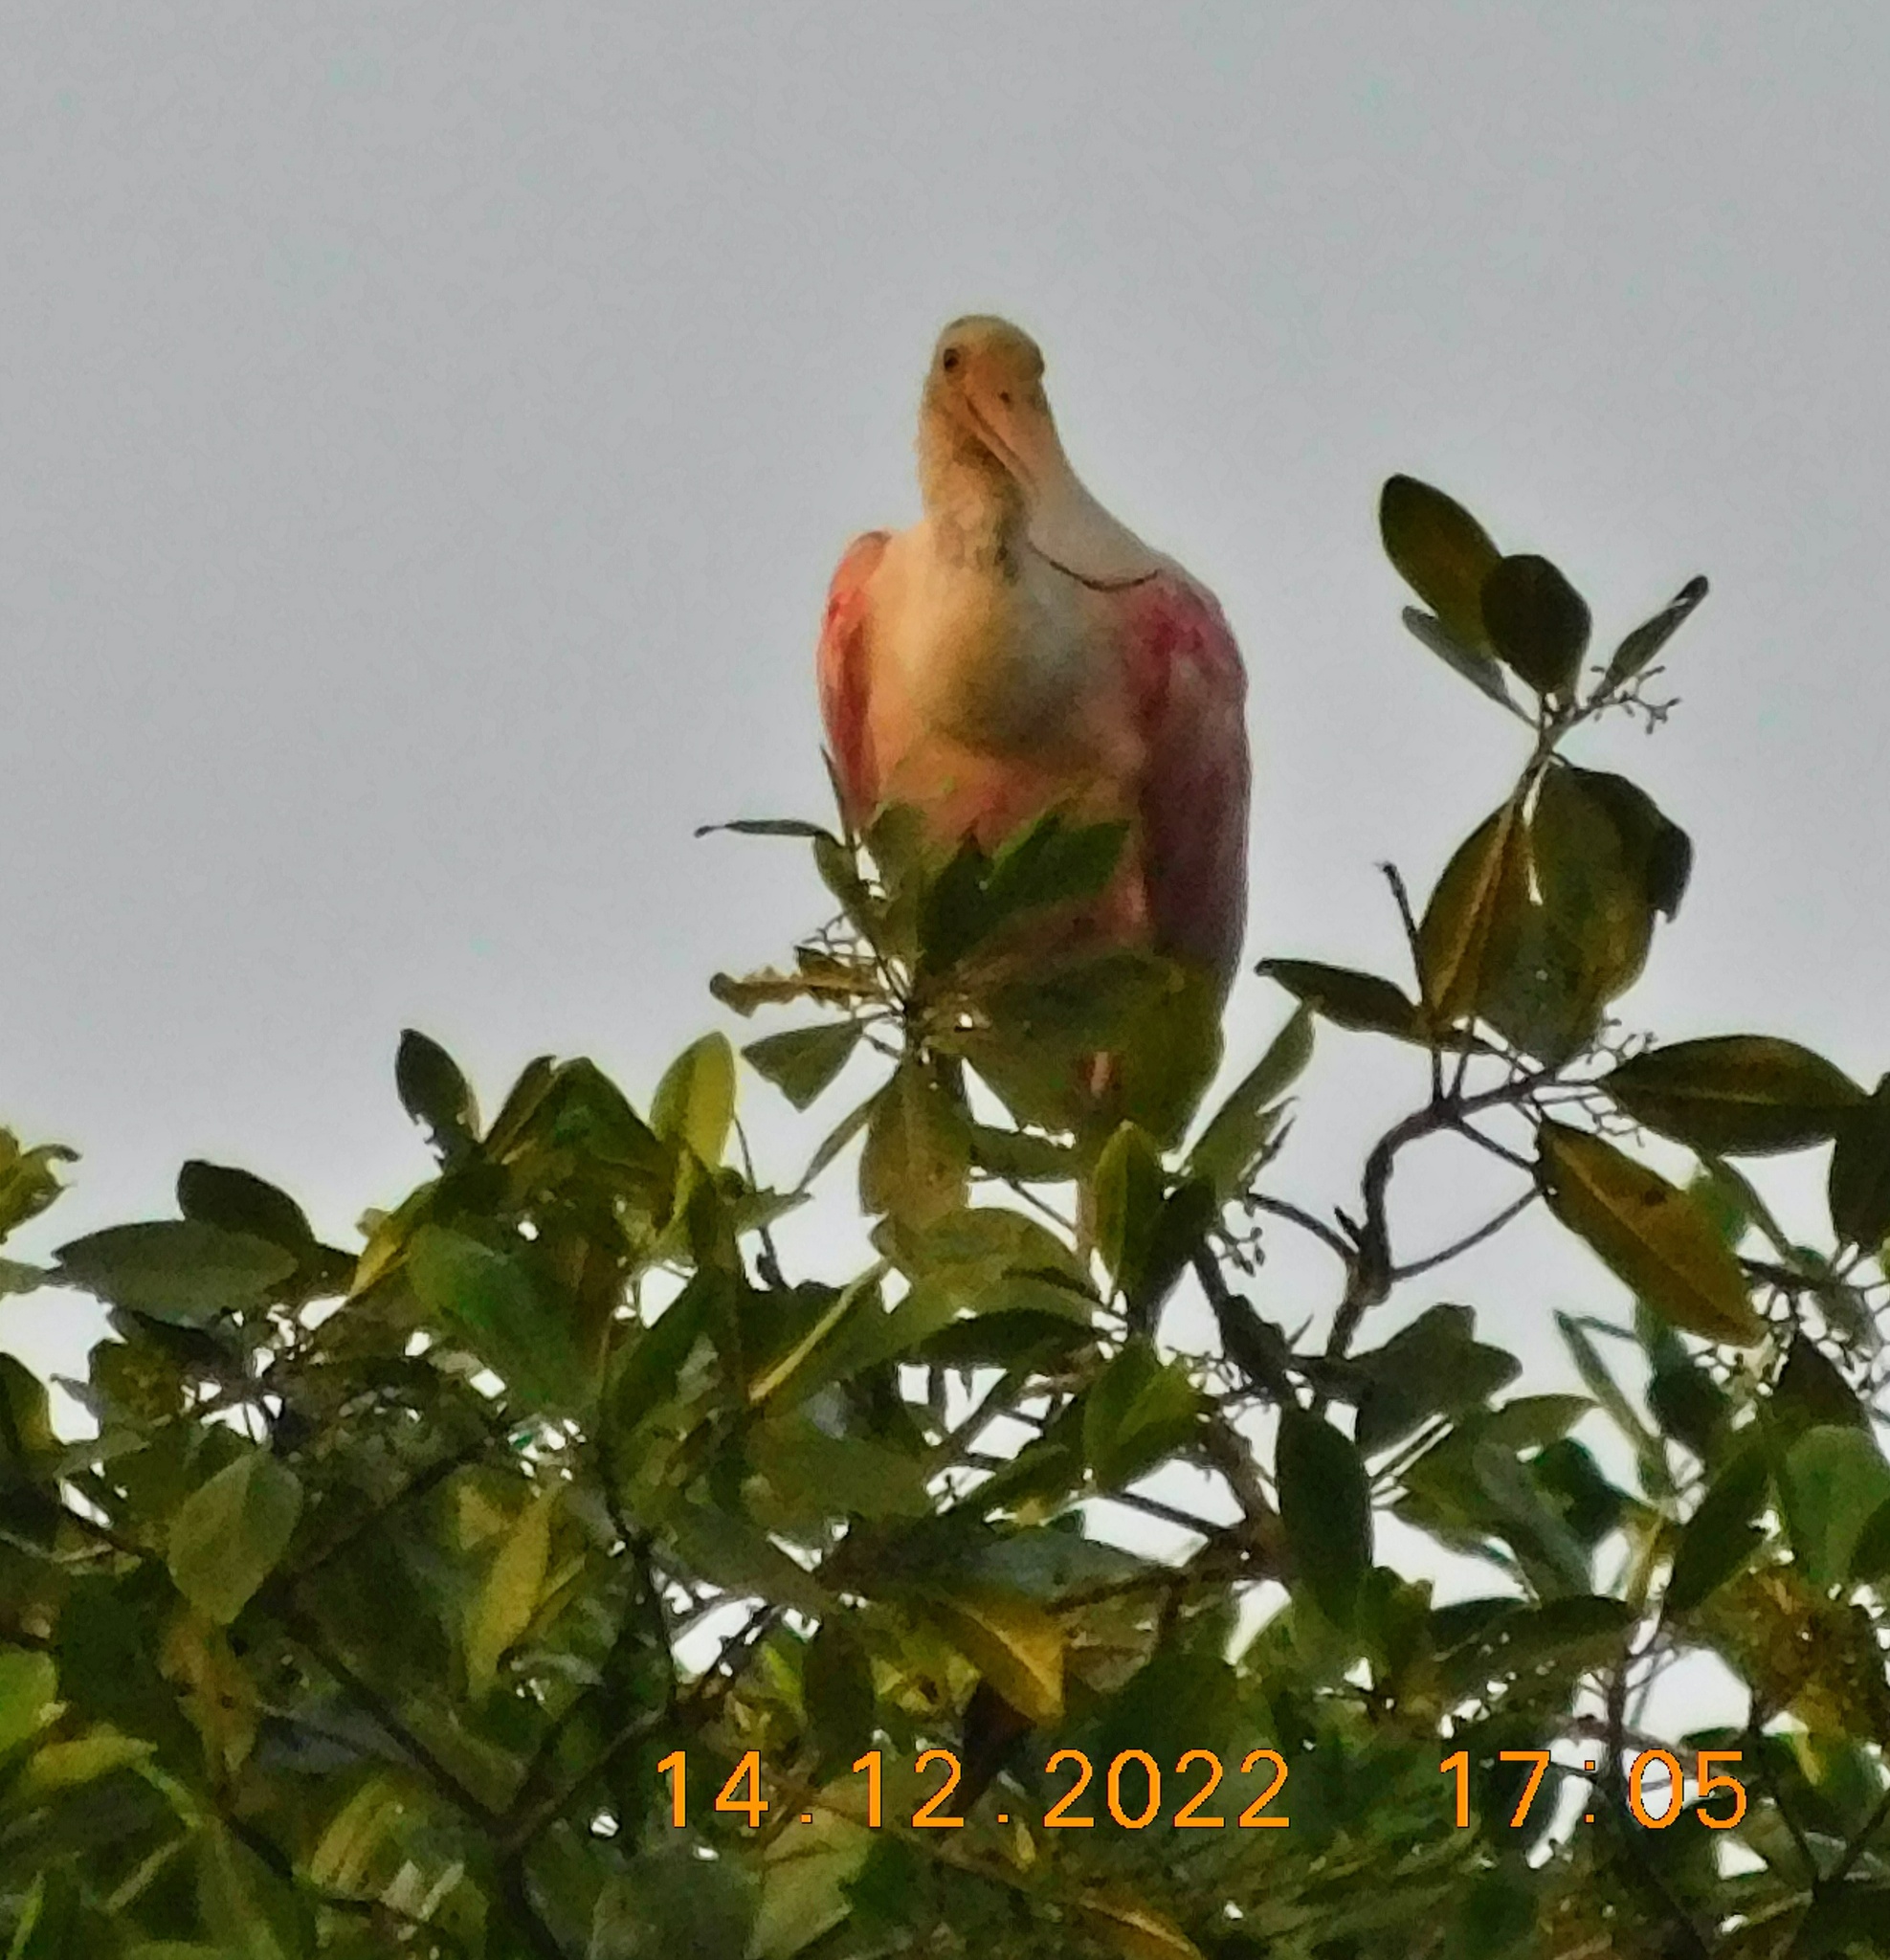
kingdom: Animalia
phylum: Chordata
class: Aves
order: Pelecaniformes
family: Threskiornithidae
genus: Platalea
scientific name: Platalea ajaja
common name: Roseate spoonbill
